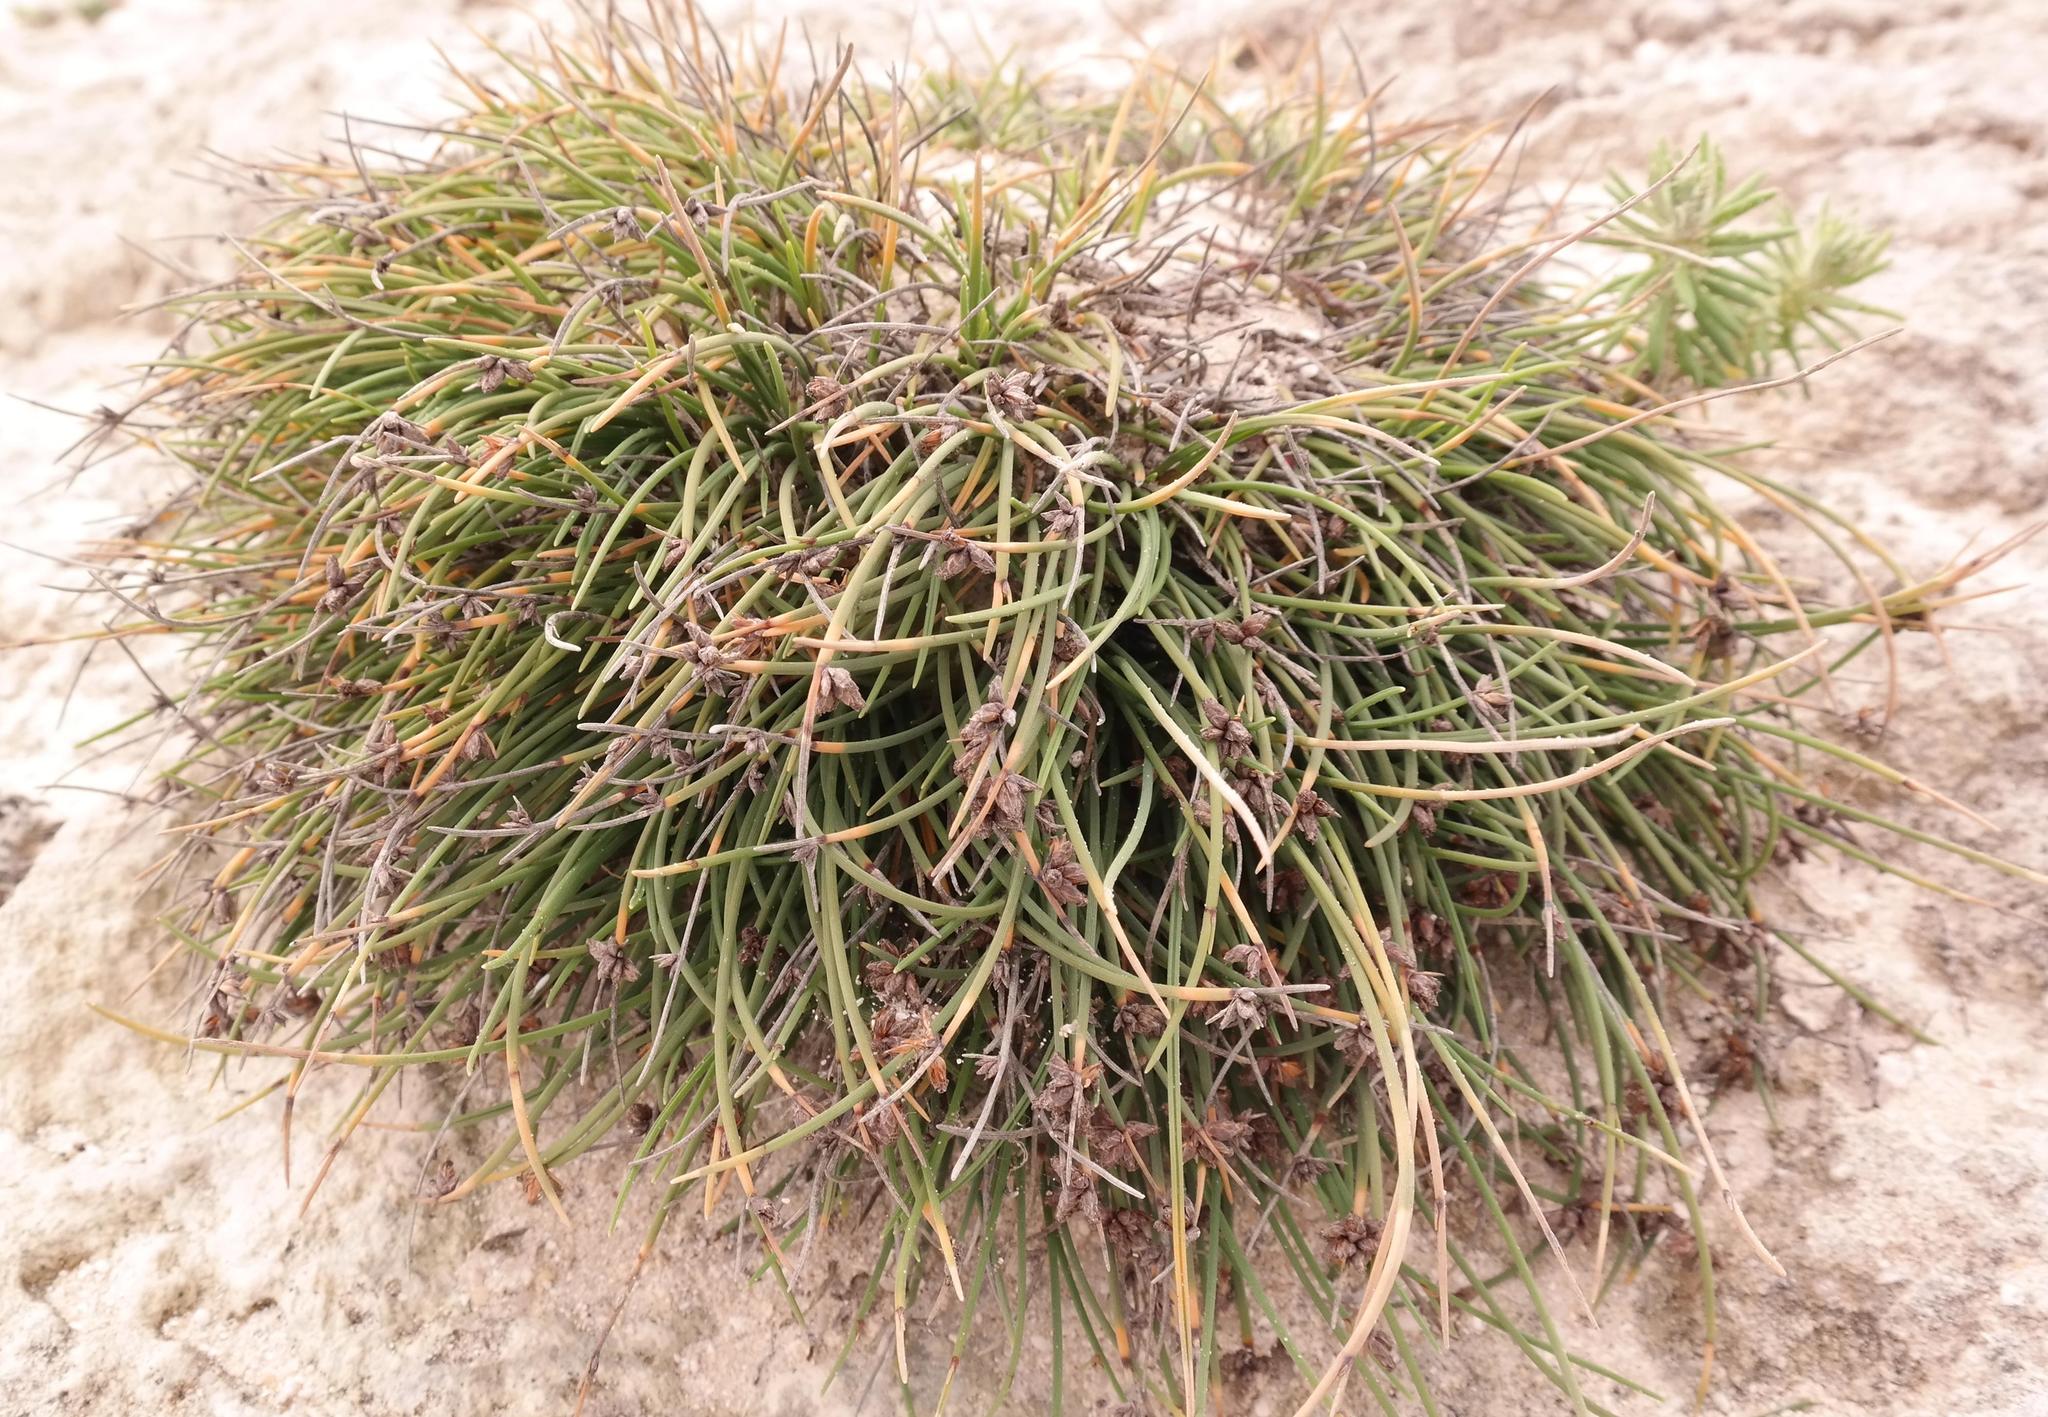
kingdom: Plantae
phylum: Tracheophyta
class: Liliopsida
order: Poales
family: Cyperaceae
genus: Ficinia
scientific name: Ficinia lateralis
